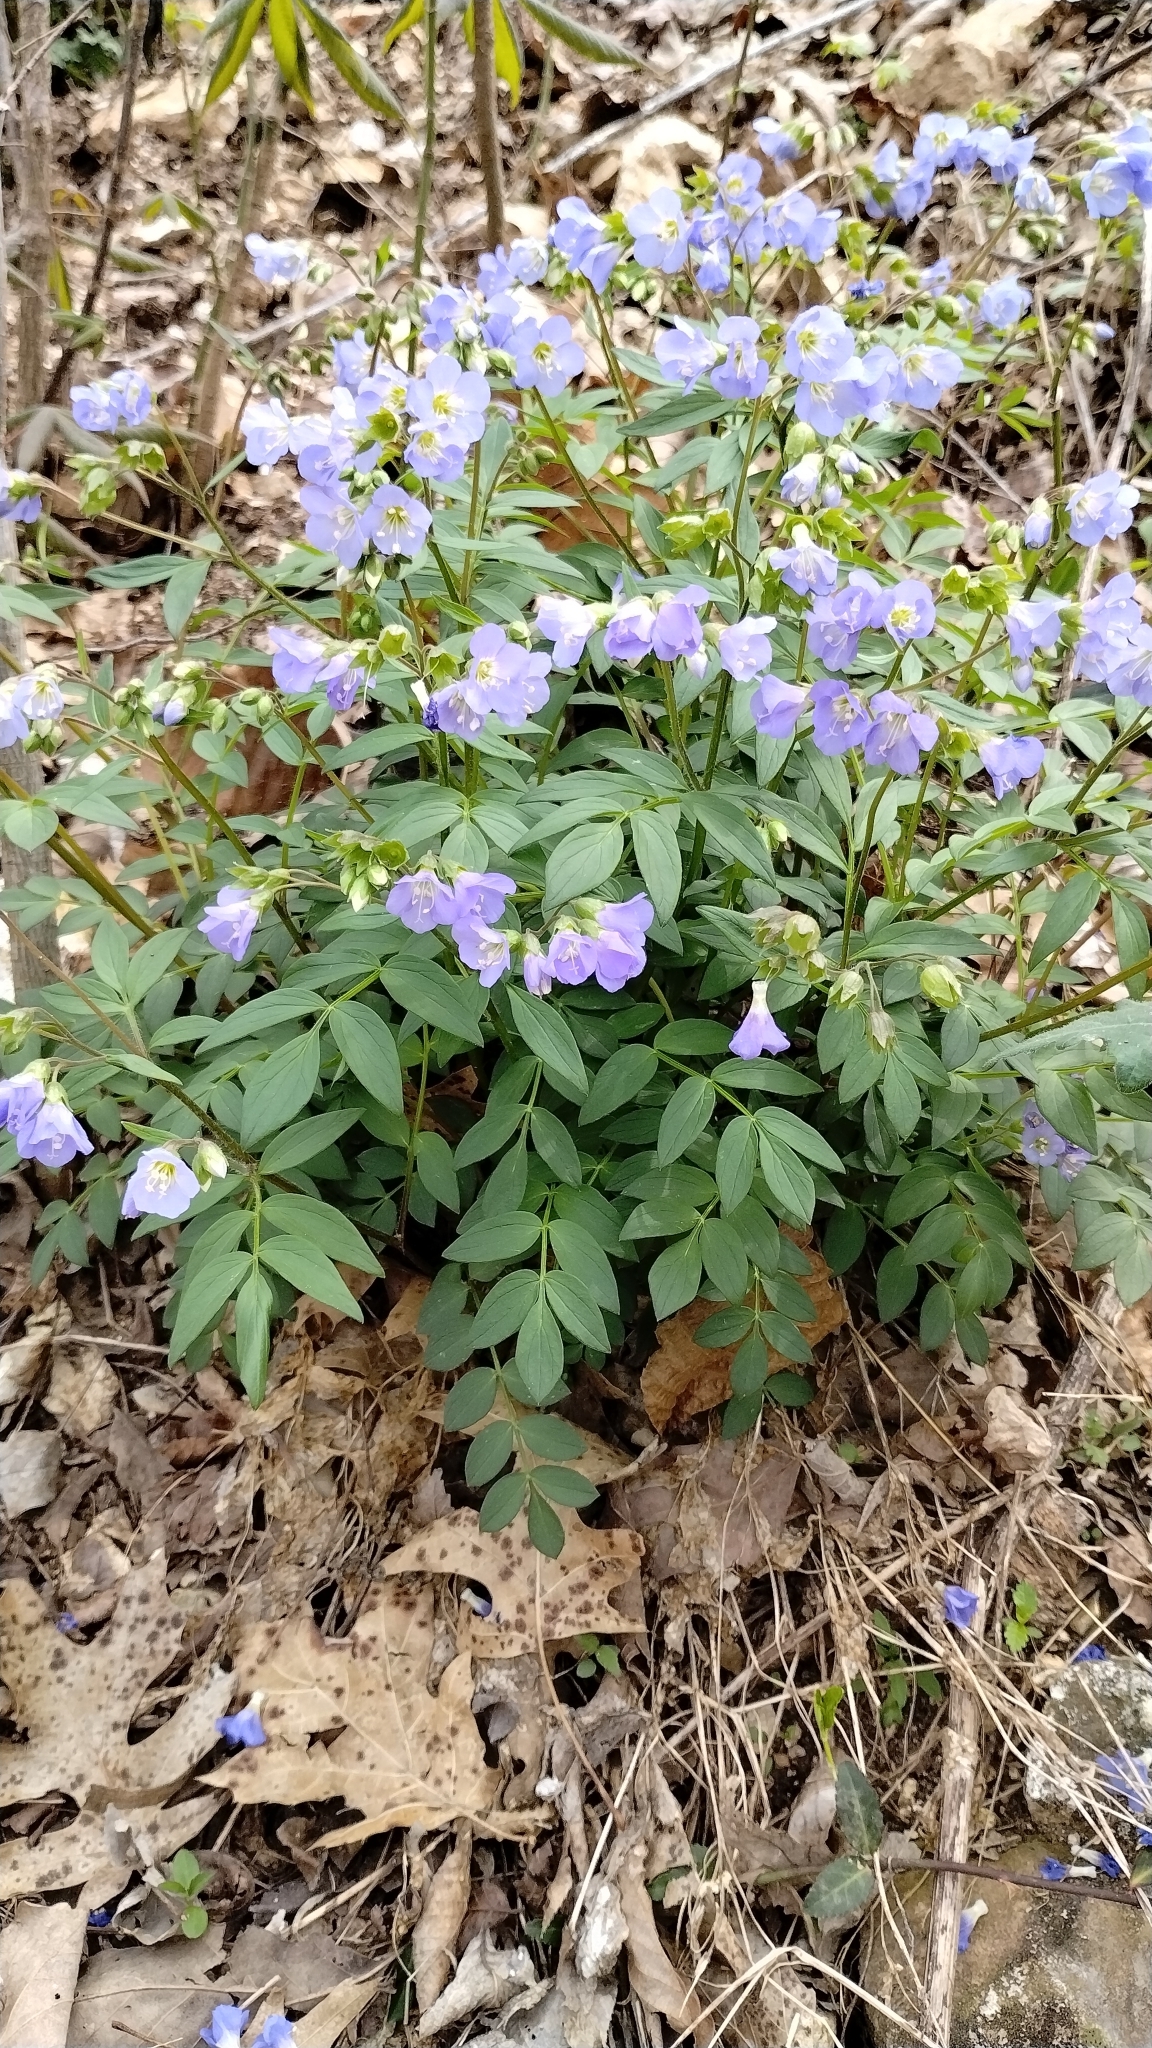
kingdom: Plantae
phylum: Tracheophyta
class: Magnoliopsida
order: Ericales
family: Polemoniaceae
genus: Polemonium
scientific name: Polemonium reptans
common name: Creeping jacob's-ladder
